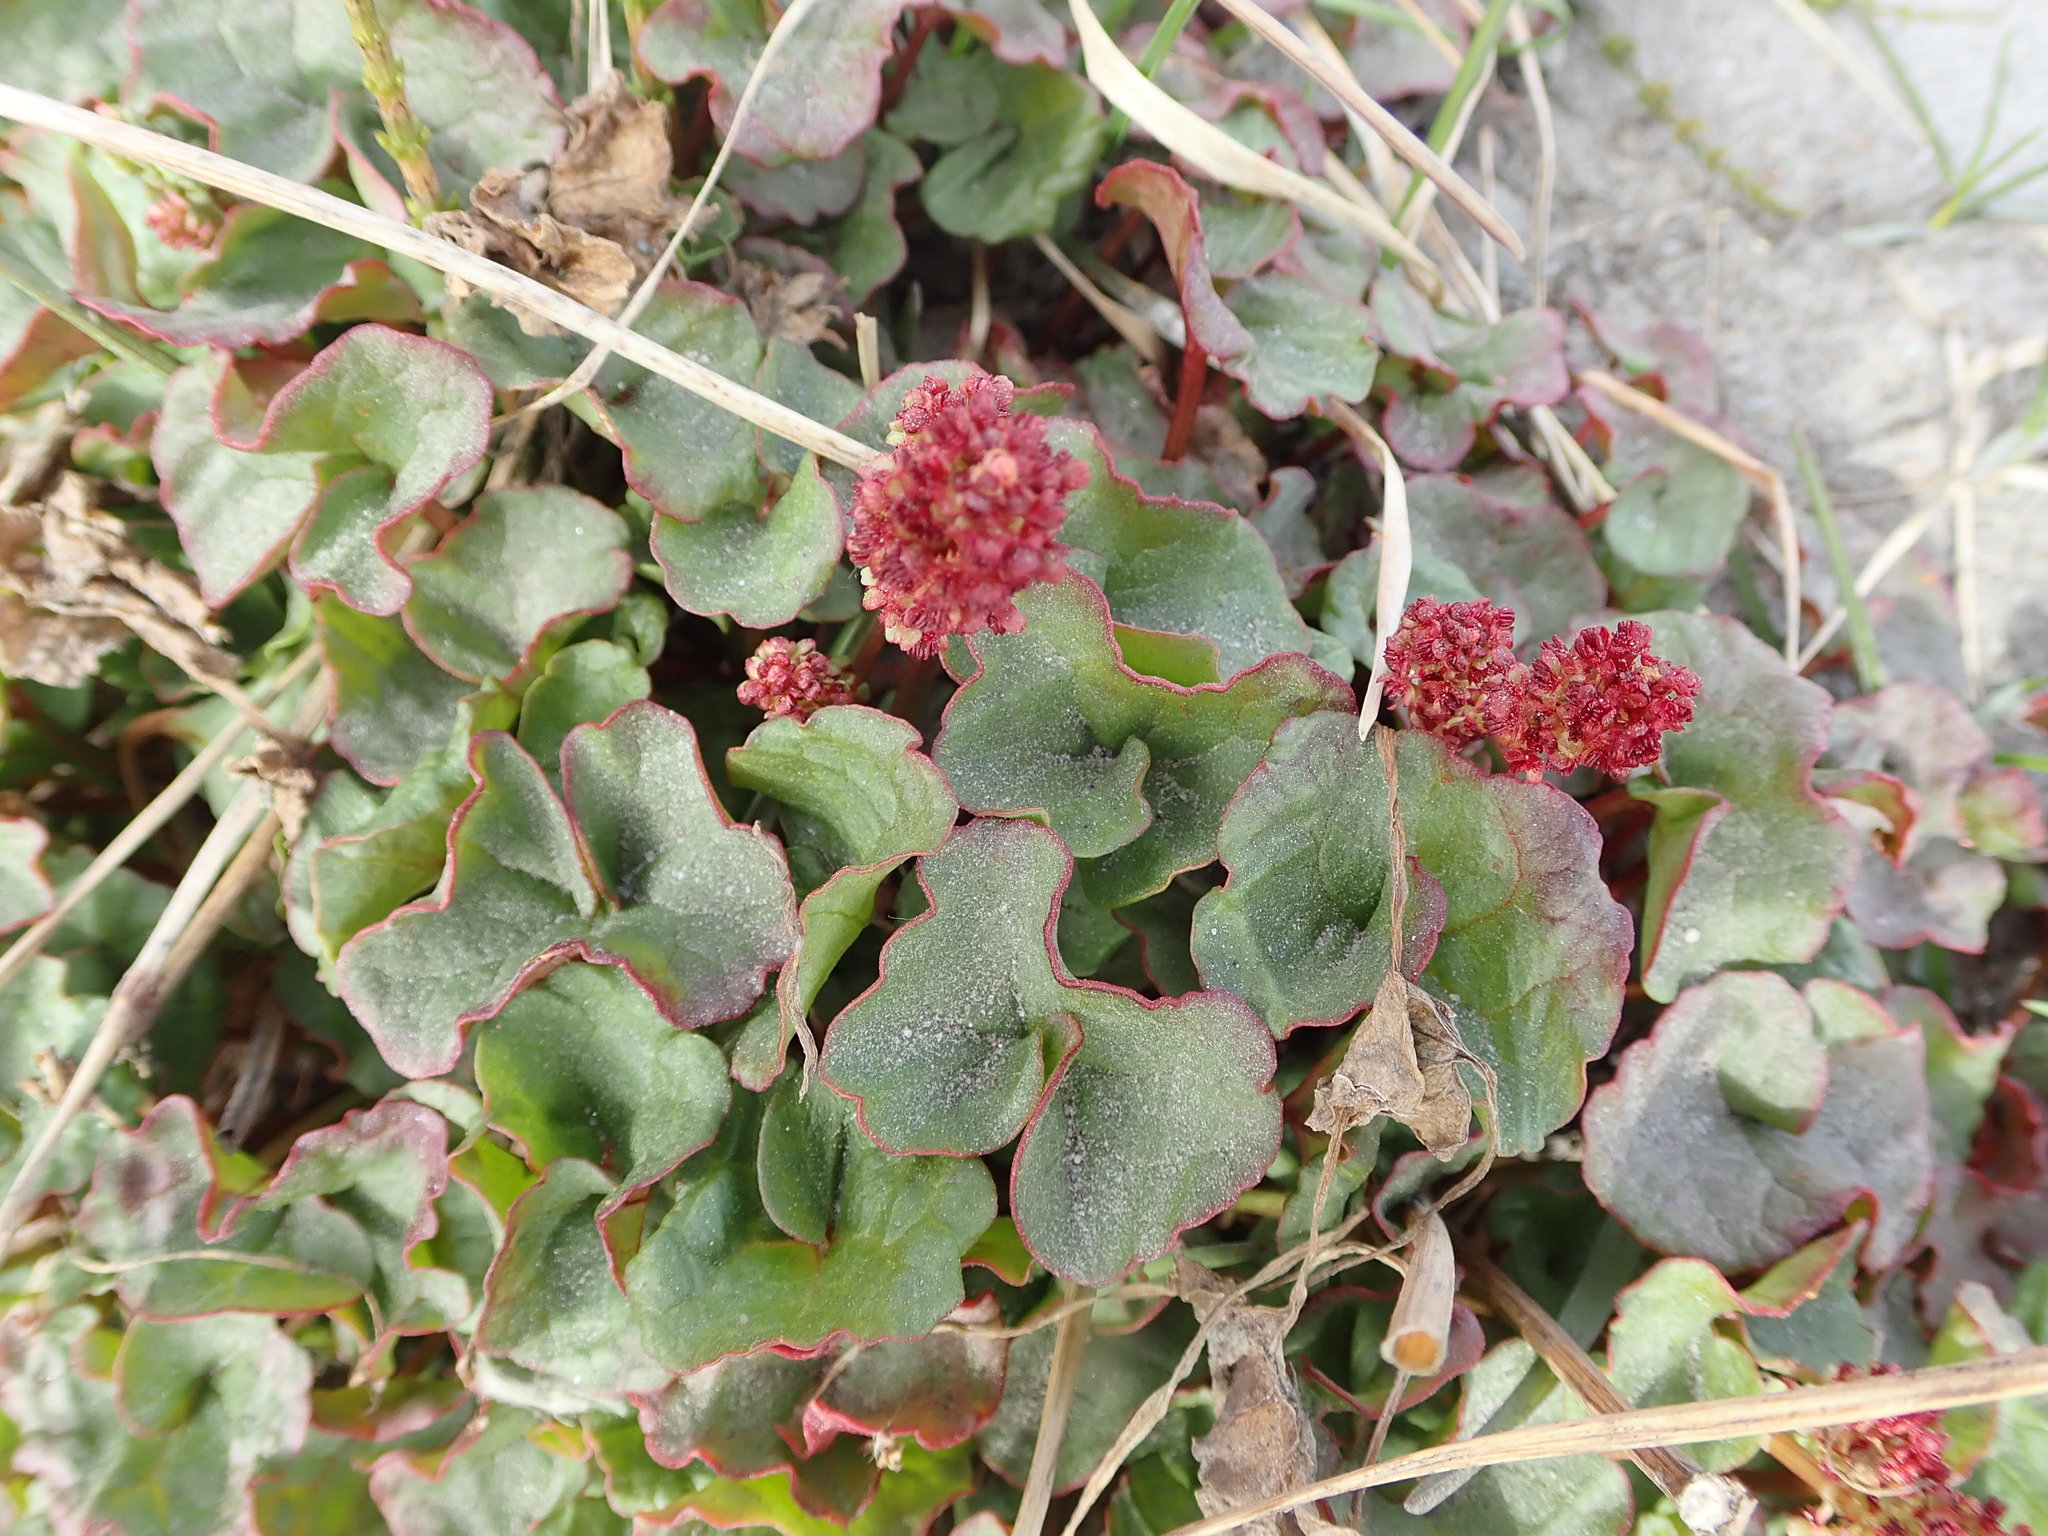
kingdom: Plantae
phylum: Tracheophyta
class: Magnoliopsida
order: Caryophyllales
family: Polygonaceae
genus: Oxyria
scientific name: Oxyria digyna
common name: Alpine mountain-sorrel
